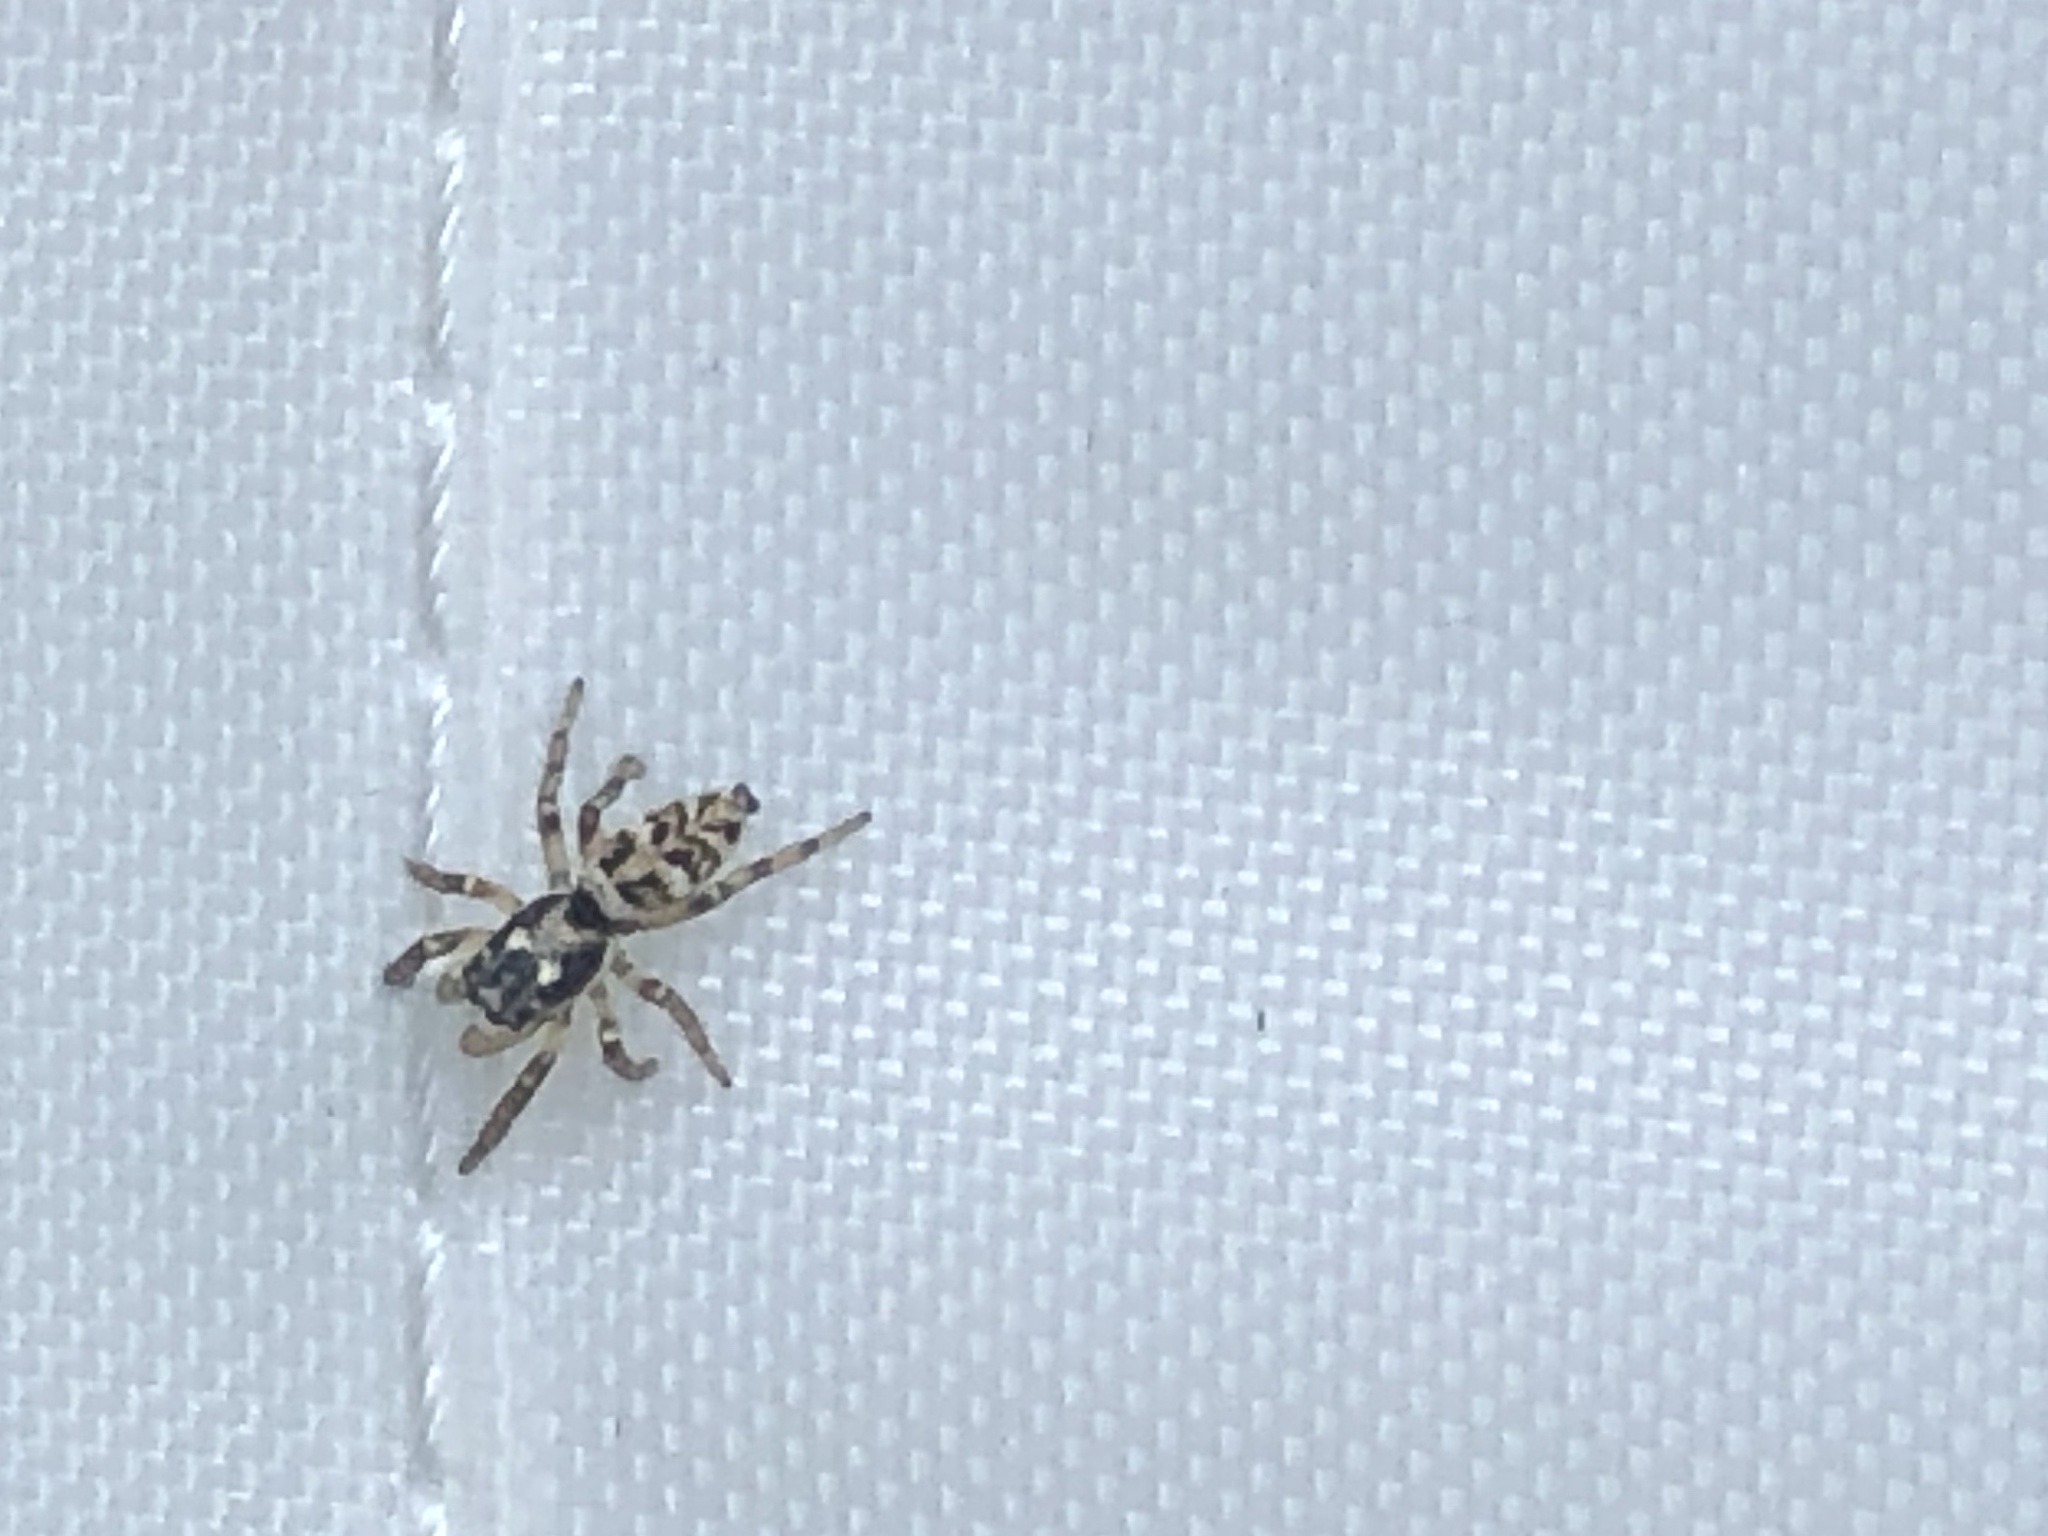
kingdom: Animalia
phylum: Arthropoda
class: Arachnida
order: Araneae
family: Salticidae
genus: Salticus
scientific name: Salticus scenicus
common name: Zebra jumper
